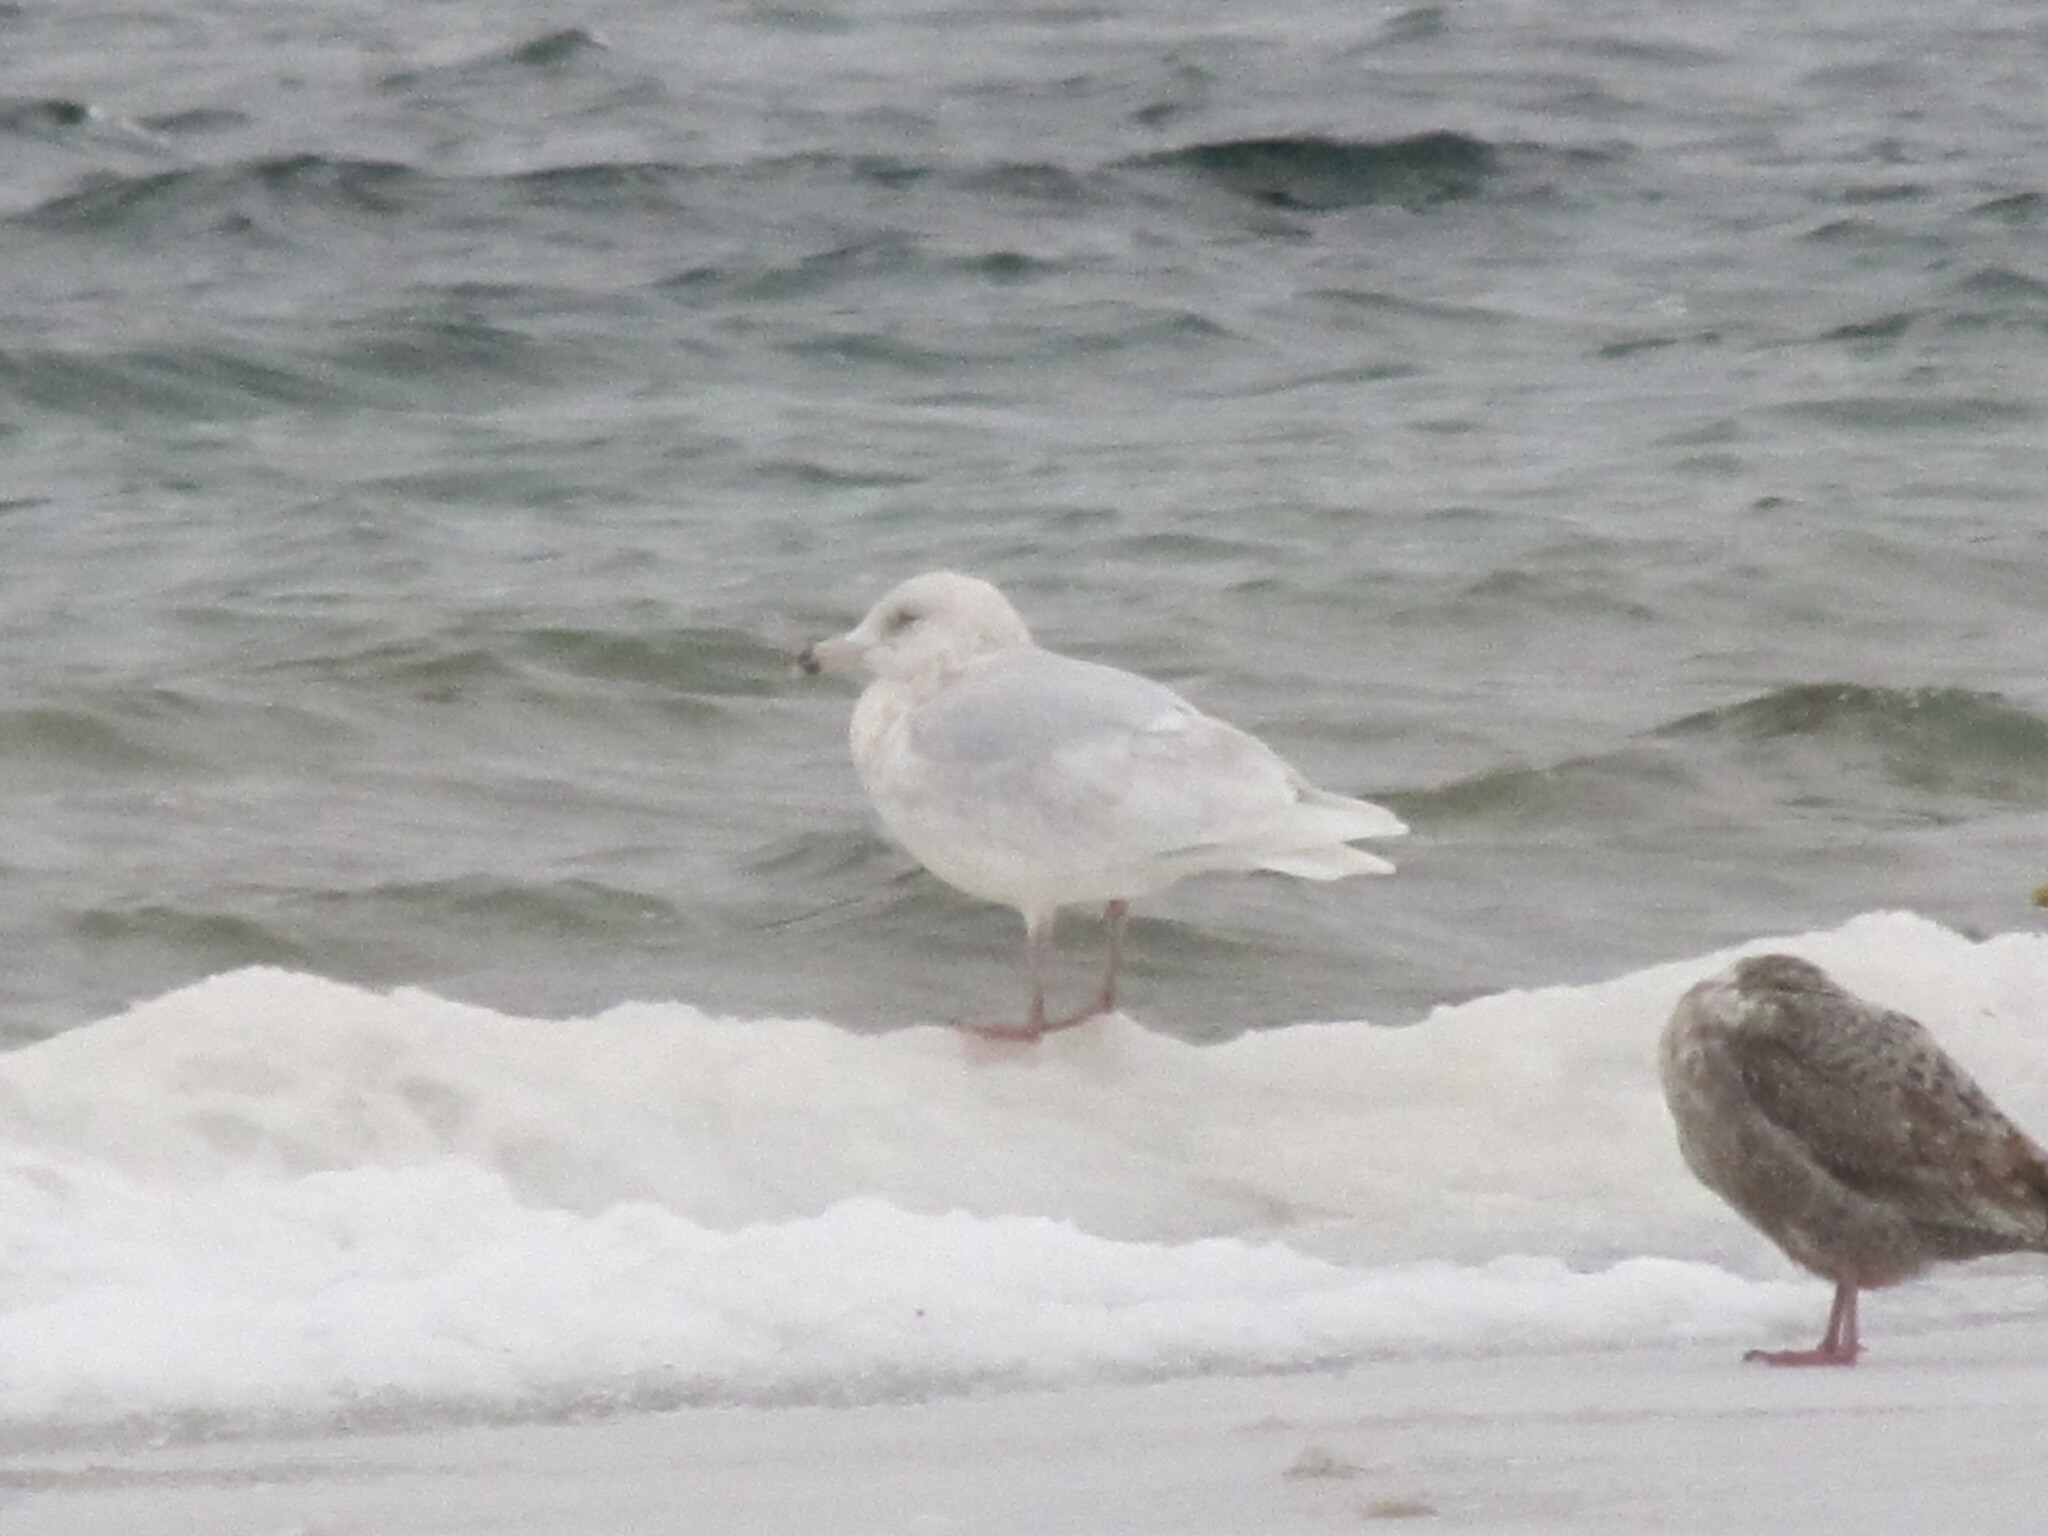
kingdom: Animalia
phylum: Chordata
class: Aves
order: Charadriiformes
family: Laridae
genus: Larus
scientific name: Larus hyperboreus
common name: Glaucous gull
